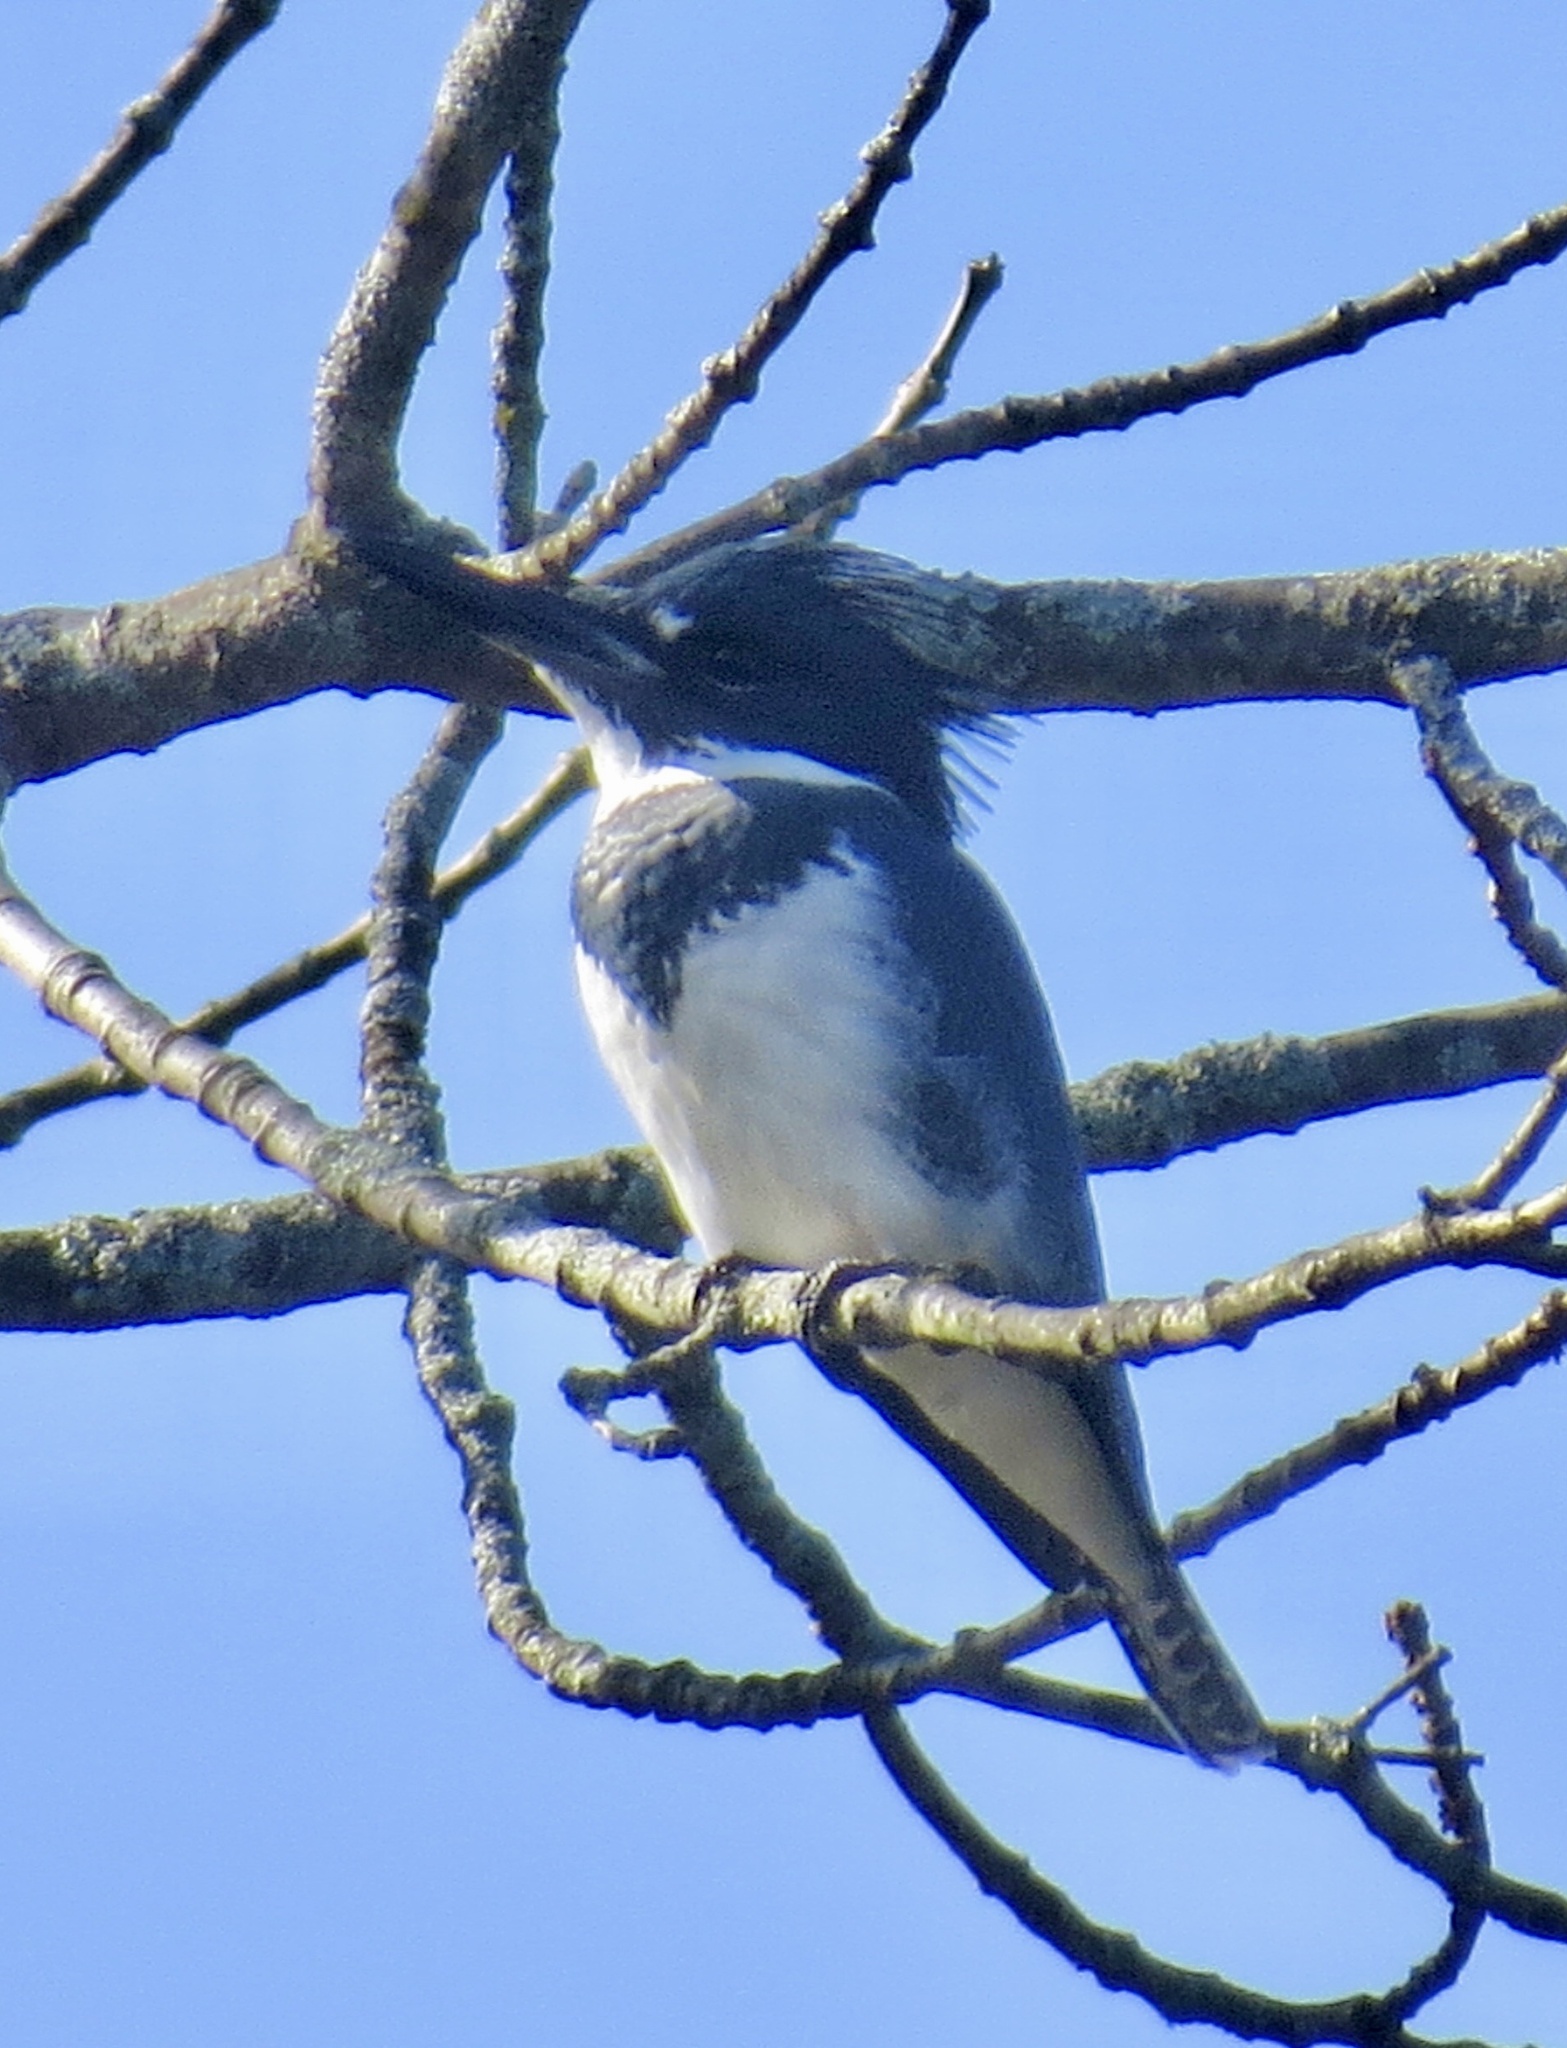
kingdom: Animalia
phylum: Chordata
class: Aves
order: Coraciiformes
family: Alcedinidae
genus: Megaceryle
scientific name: Megaceryle alcyon
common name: Belted kingfisher
